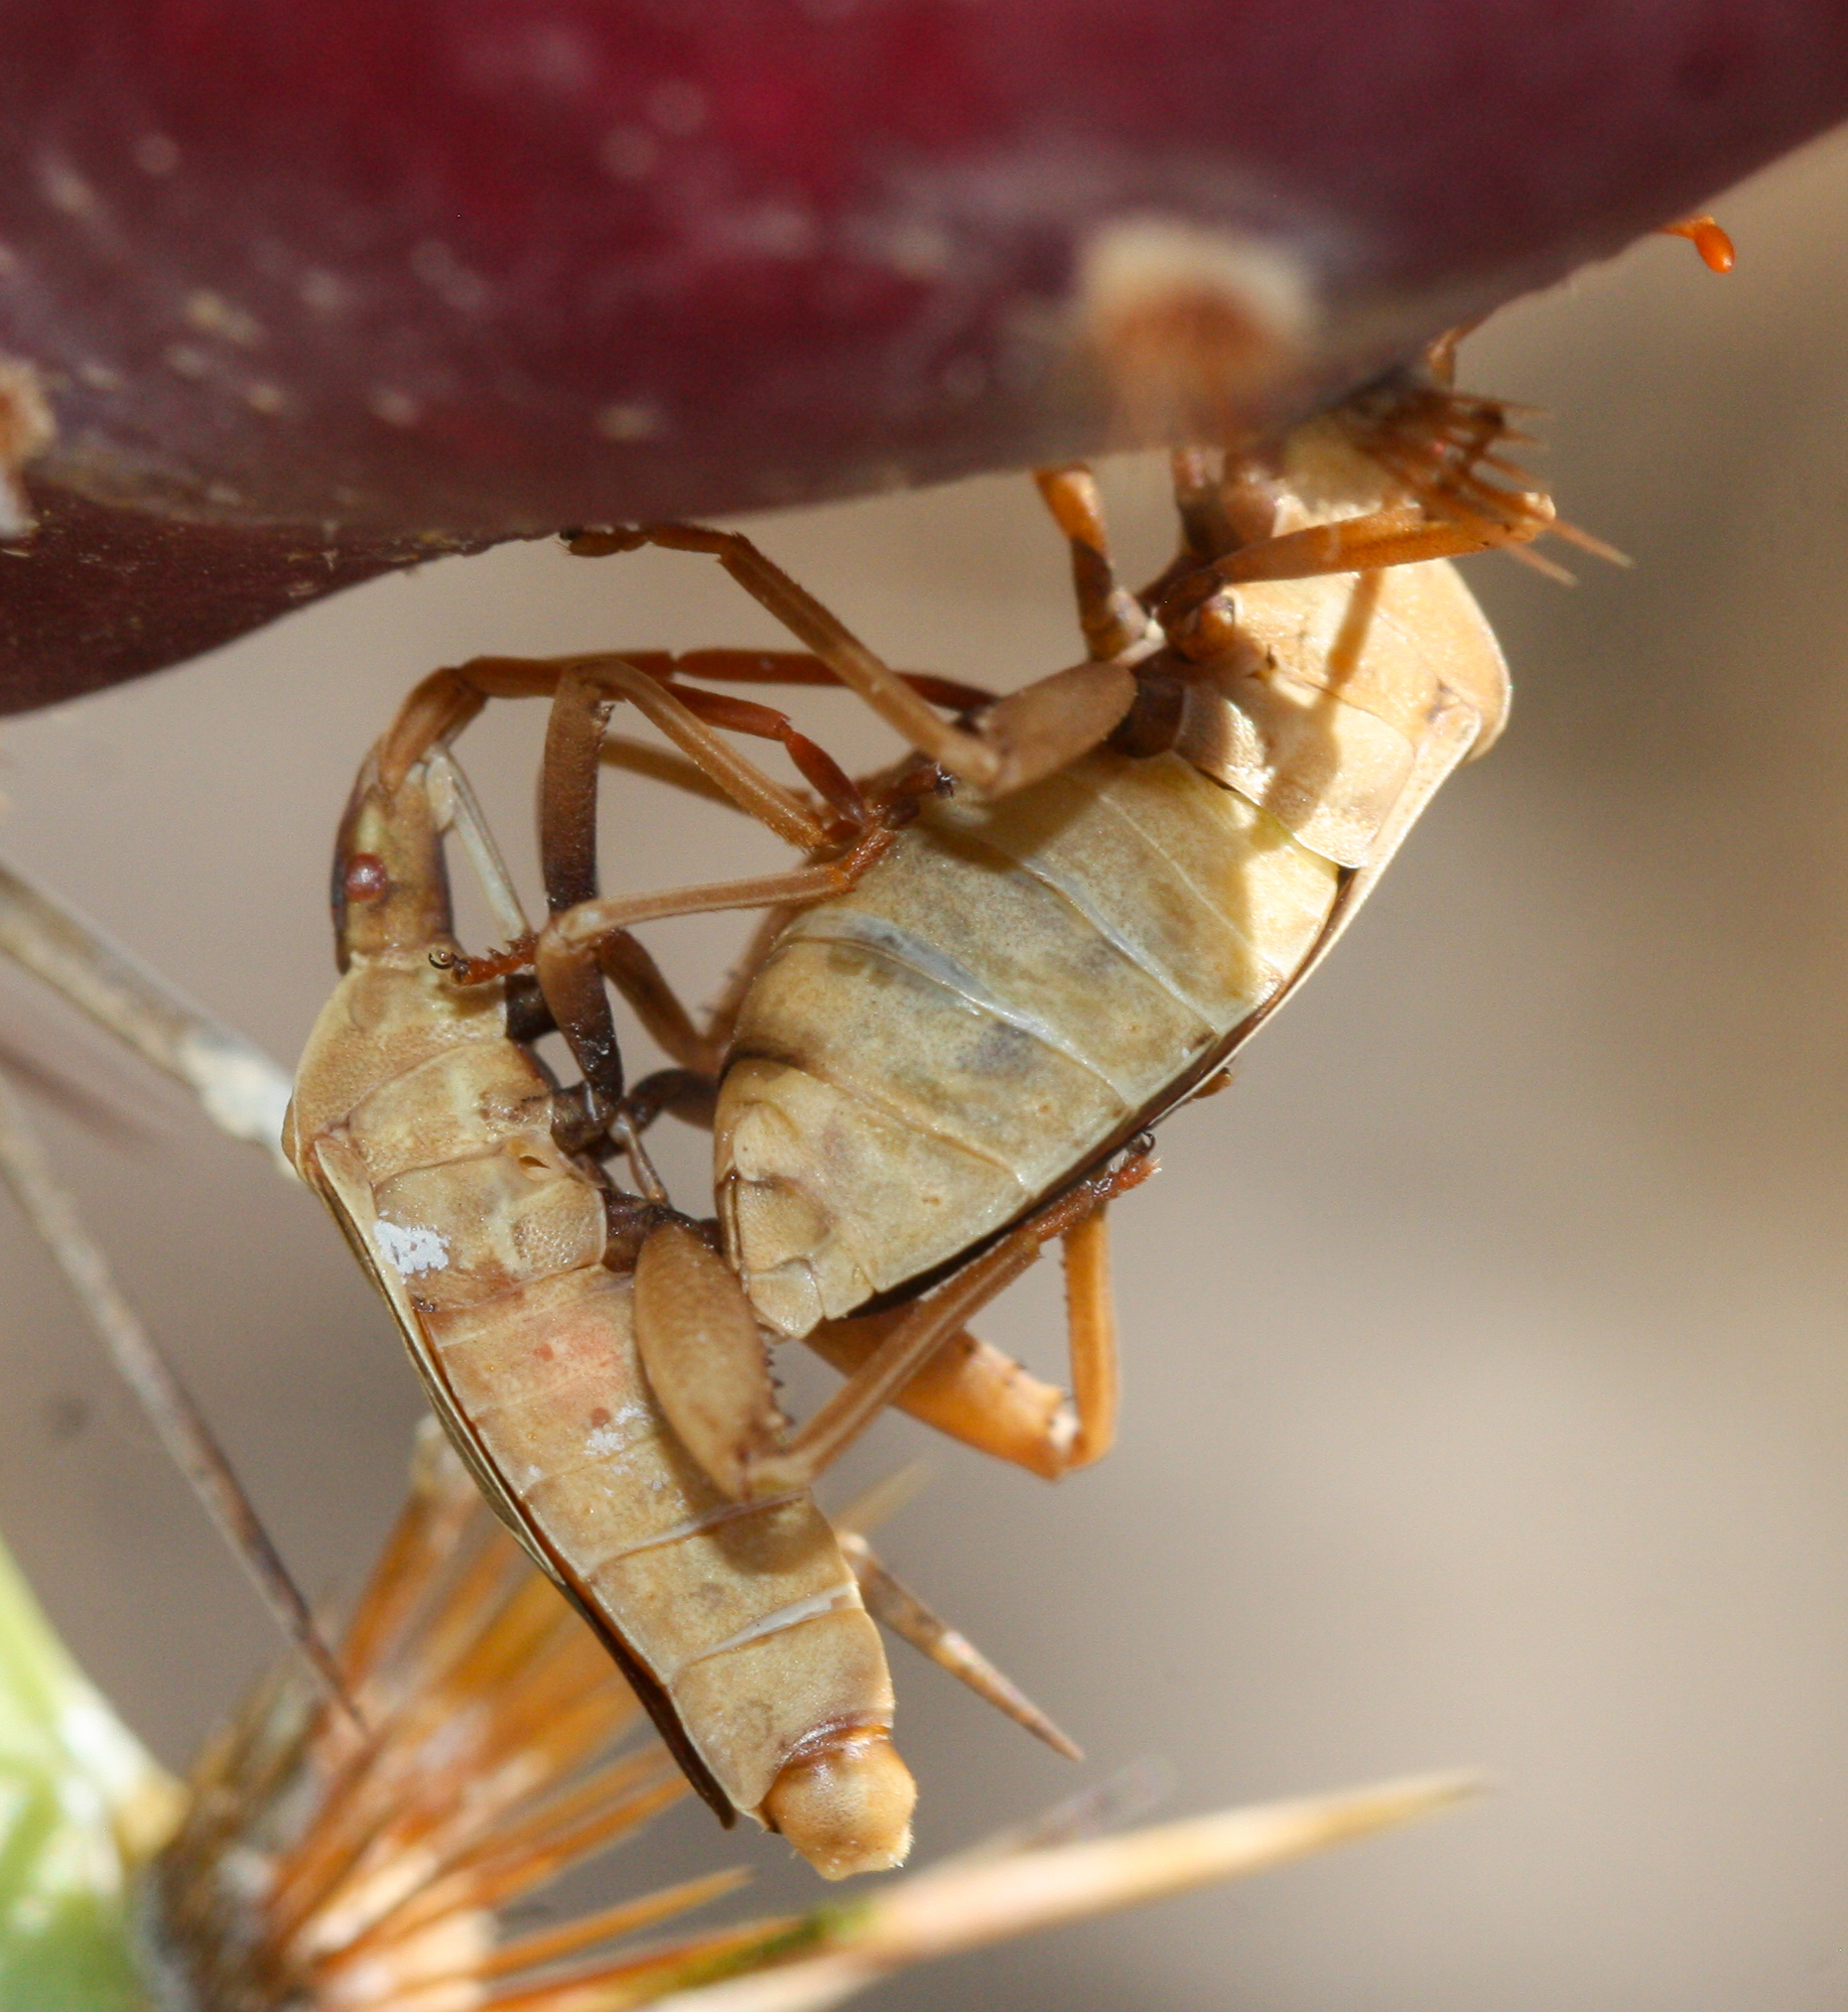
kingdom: Animalia
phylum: Arthropoda
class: Insecta
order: Hemiptera
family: Coreidae
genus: Chelinidea
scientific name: Chelinidea vittiger
